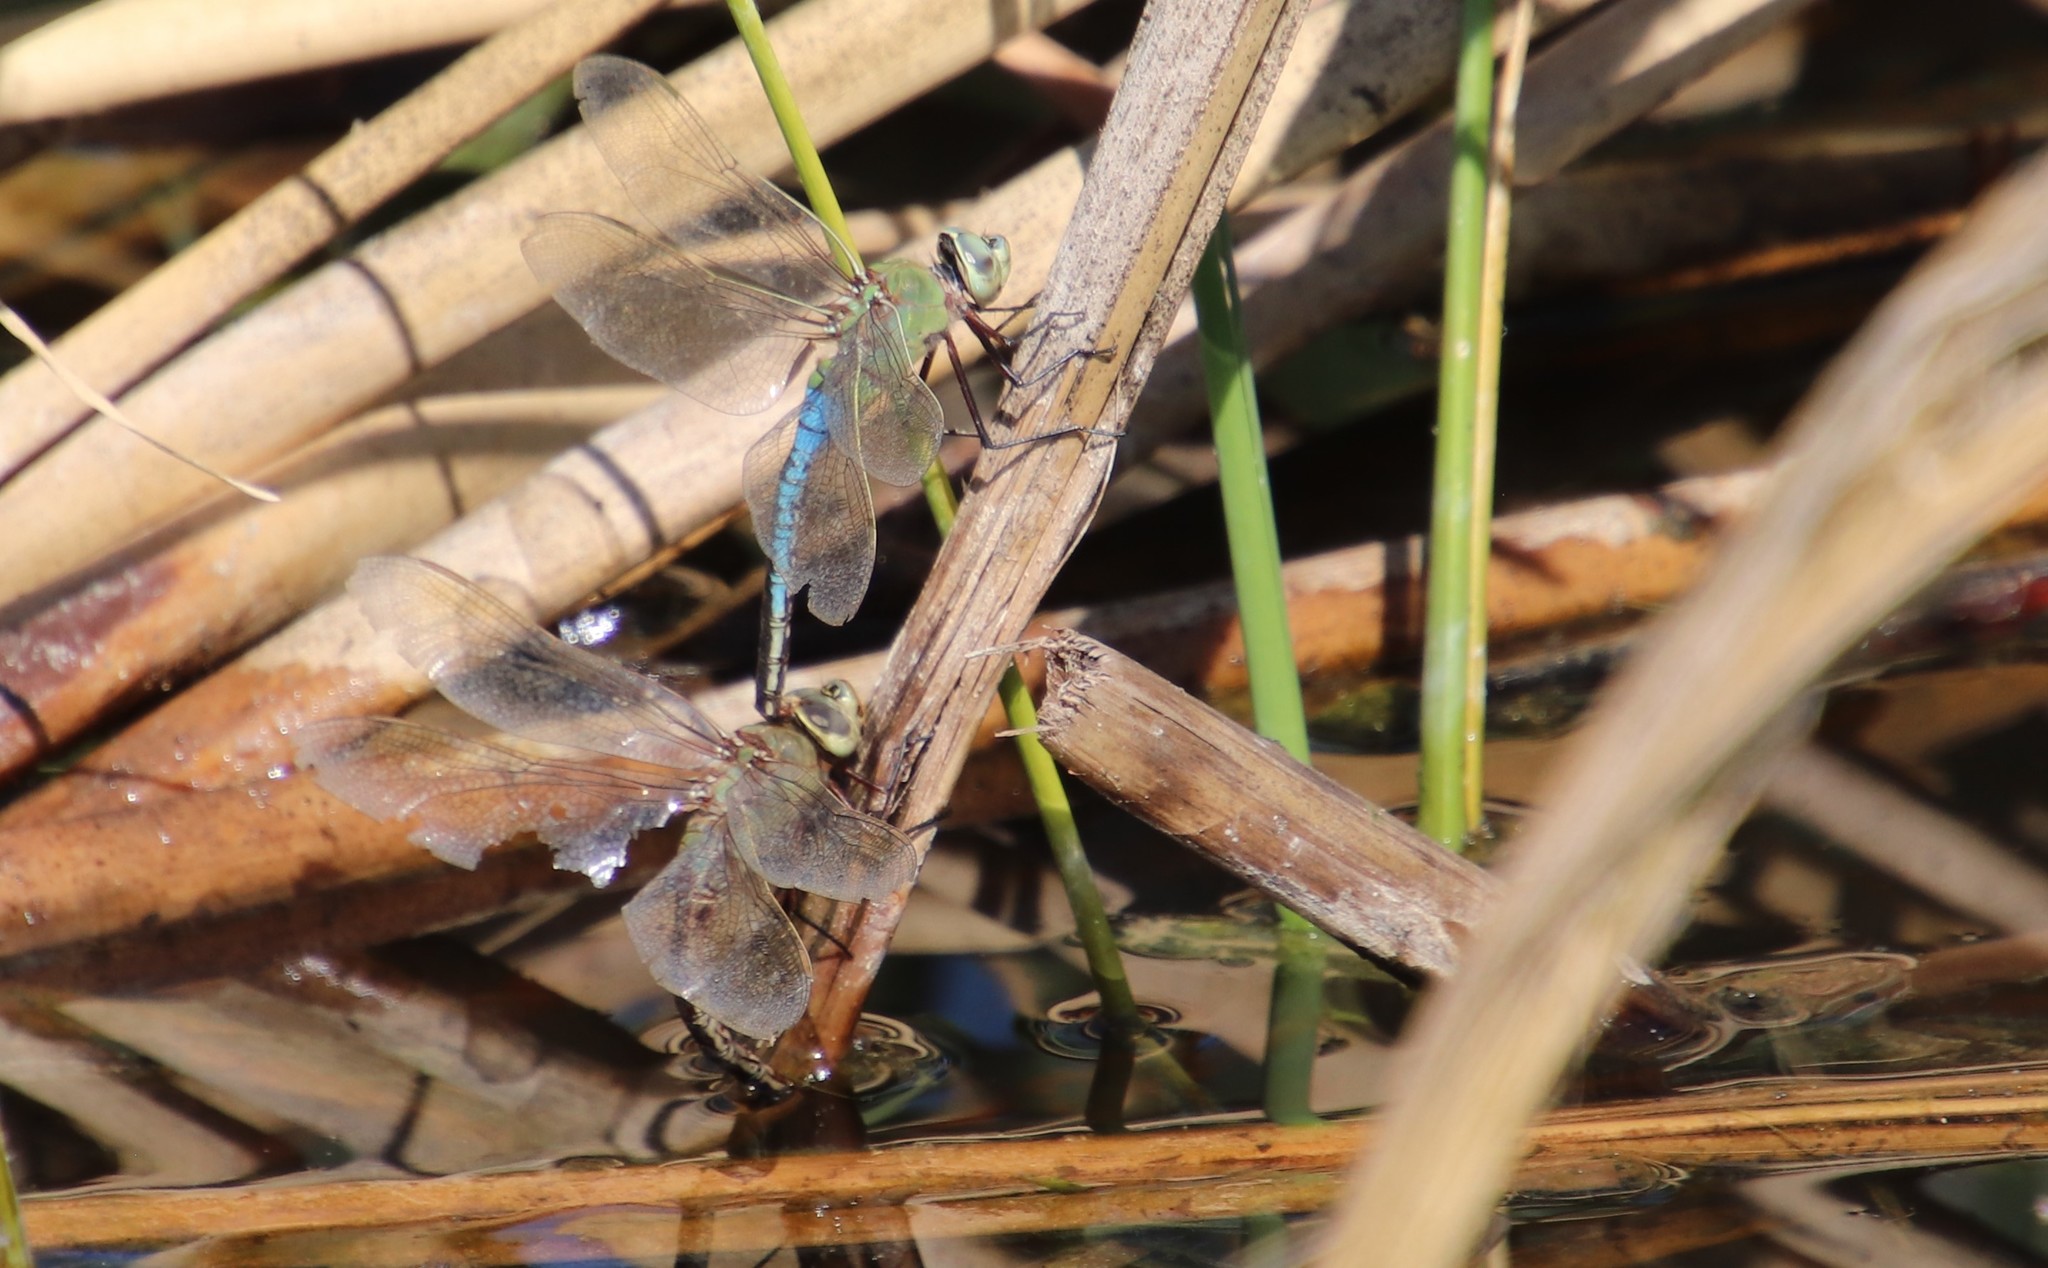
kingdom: Animalia
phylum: Arthropoda
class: Insecta
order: Odonata
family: Aeshnidae
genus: Anax
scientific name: Anax junius
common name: Common green darner
